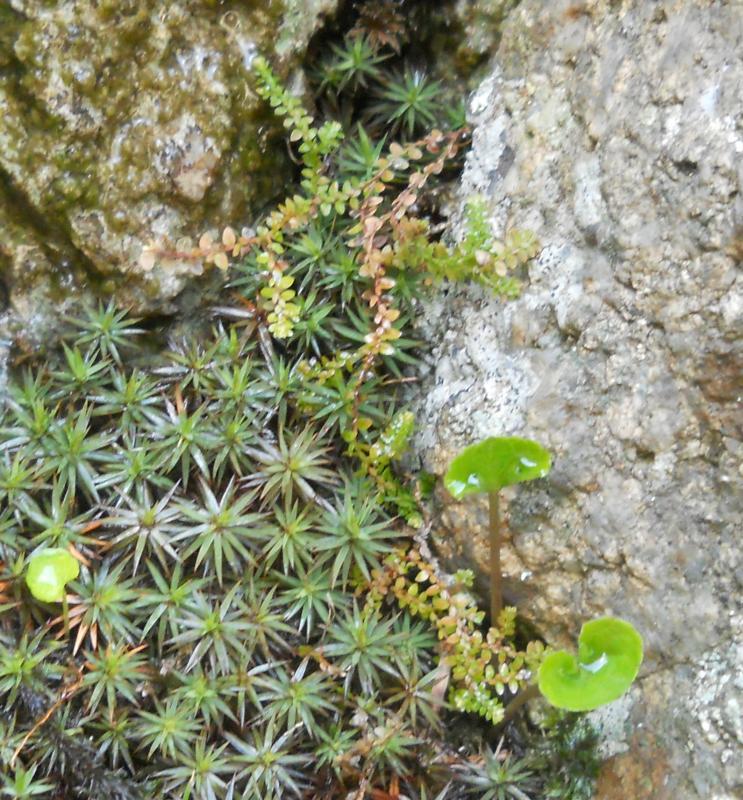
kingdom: Plantae
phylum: Bryophyta
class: Polytrichopsida
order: Polytrichales
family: Polytrichaceae
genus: Pogonatum
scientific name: Pogonatum urnigerum
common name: Urn hair moss
